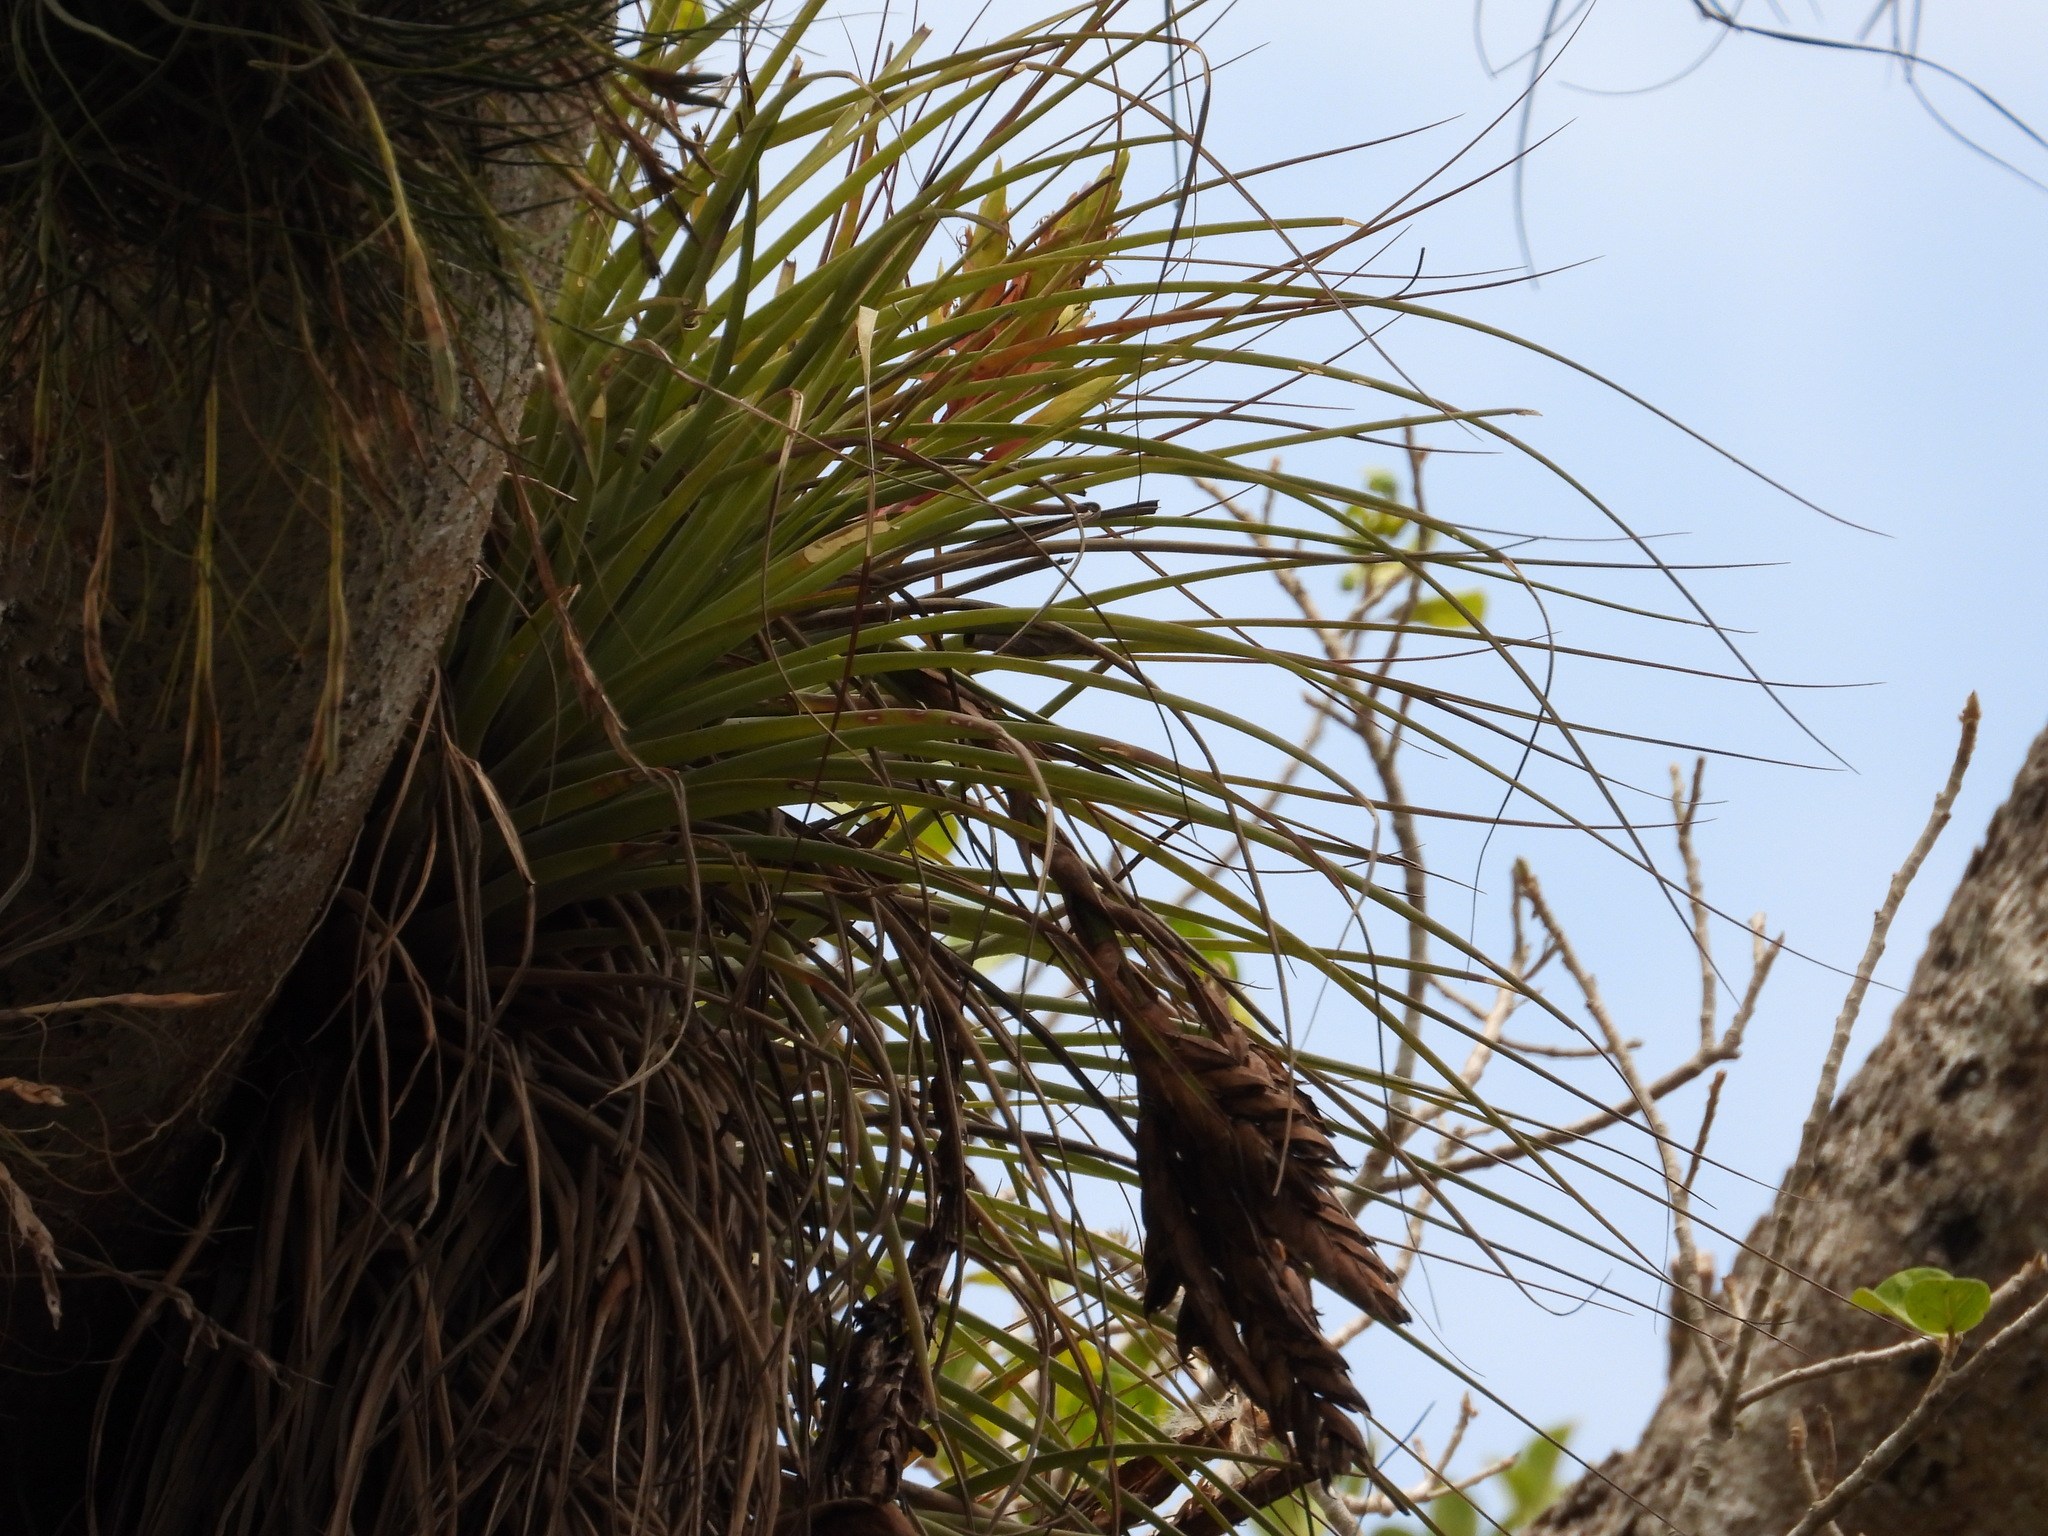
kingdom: Plantae
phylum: Tracheophyta
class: Liliopsida
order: Poales
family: Bromeliaceae
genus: Tillandsia
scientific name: Tillandsia fasciculata
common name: Giant airplant
